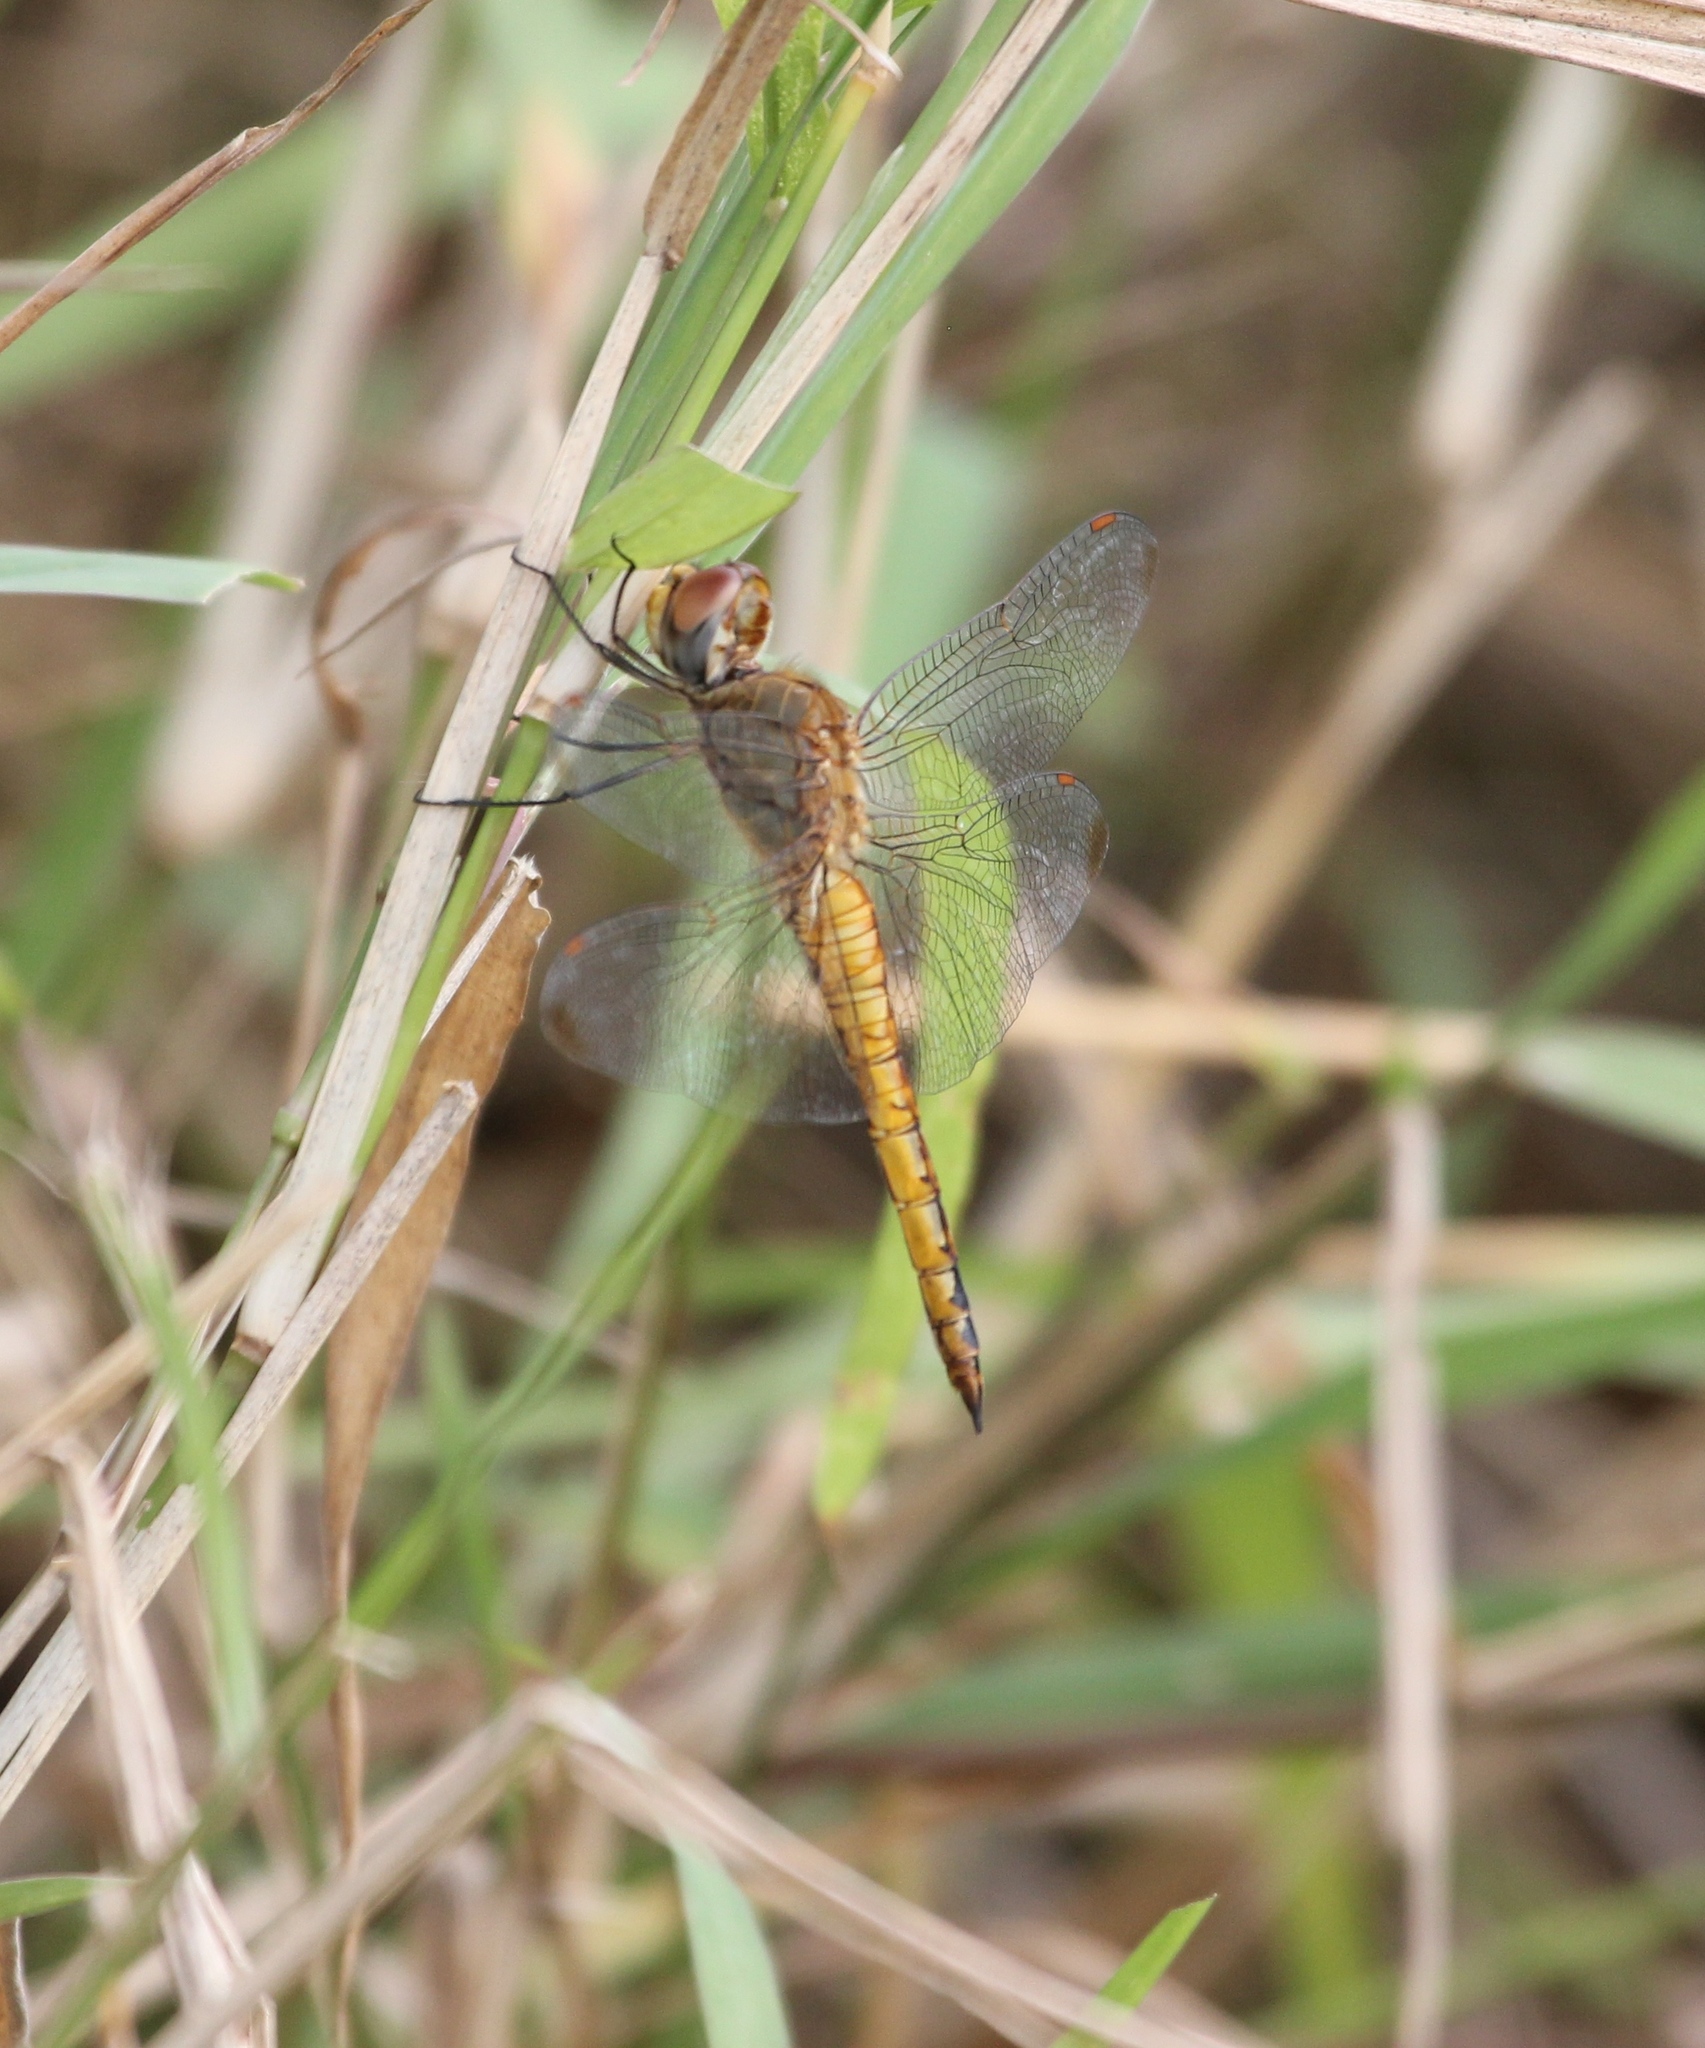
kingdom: Animalia
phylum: Arthropoda
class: Insecta
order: Odonata
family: Libellulidae
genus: Pantala
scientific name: Pantala flavescens
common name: Wandering glider
